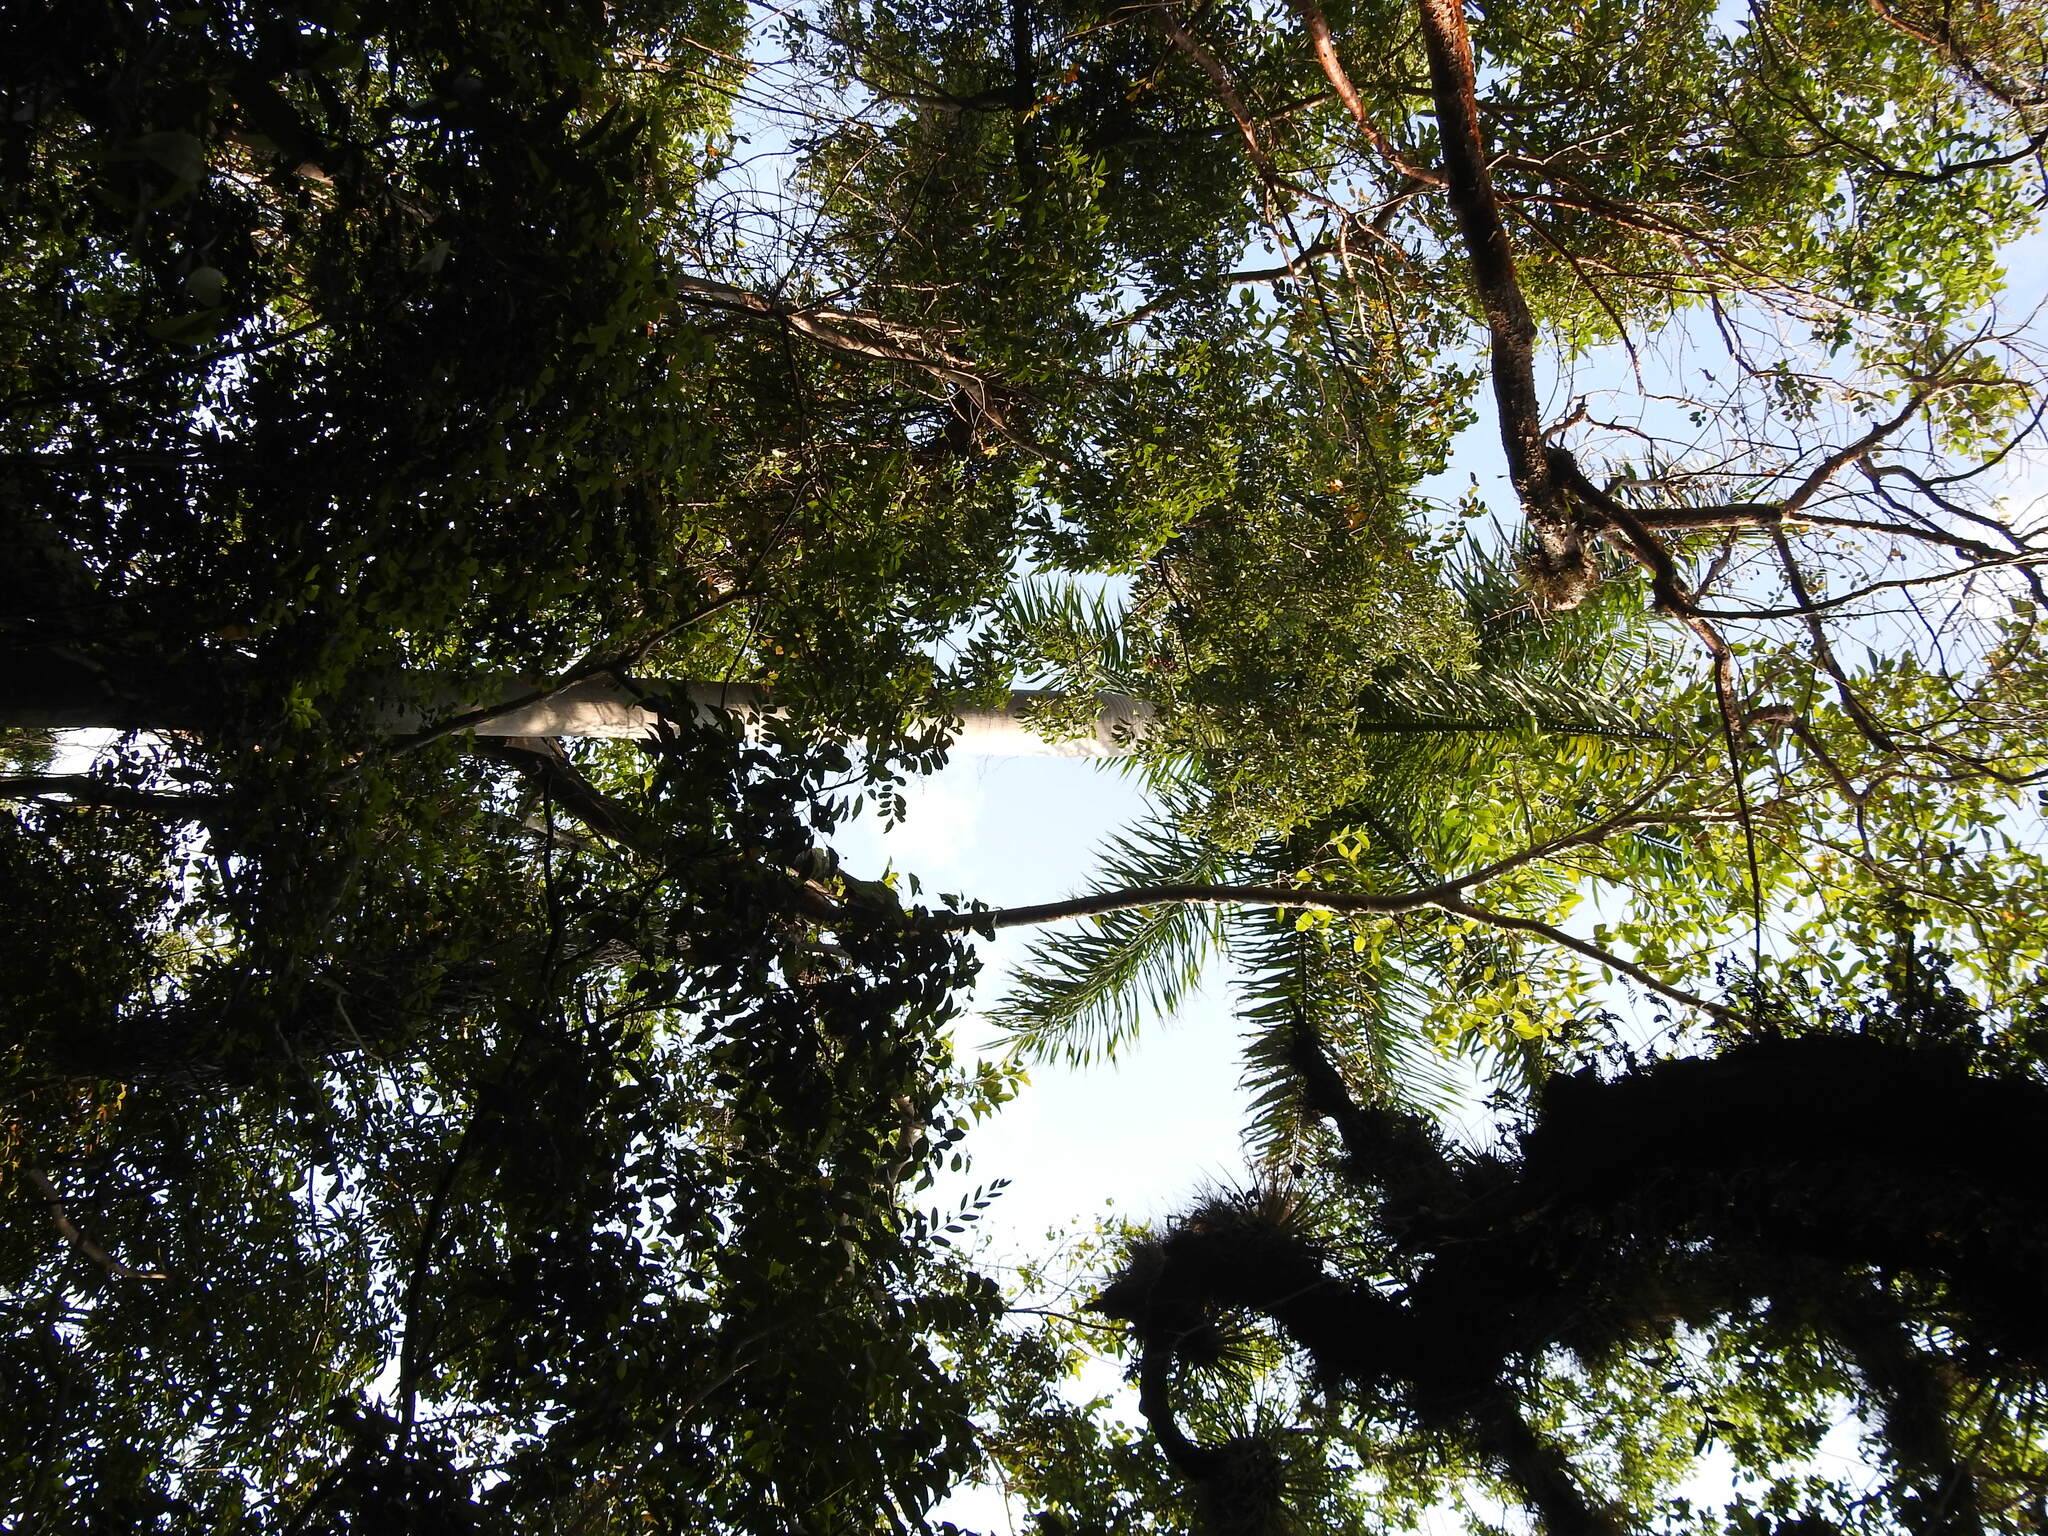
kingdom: Plantae
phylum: Tracheophyta
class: Liliopsida
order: Arecales
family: Arecaceae
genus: Roystonea
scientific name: Roystonea regia
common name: Florida royal palm
